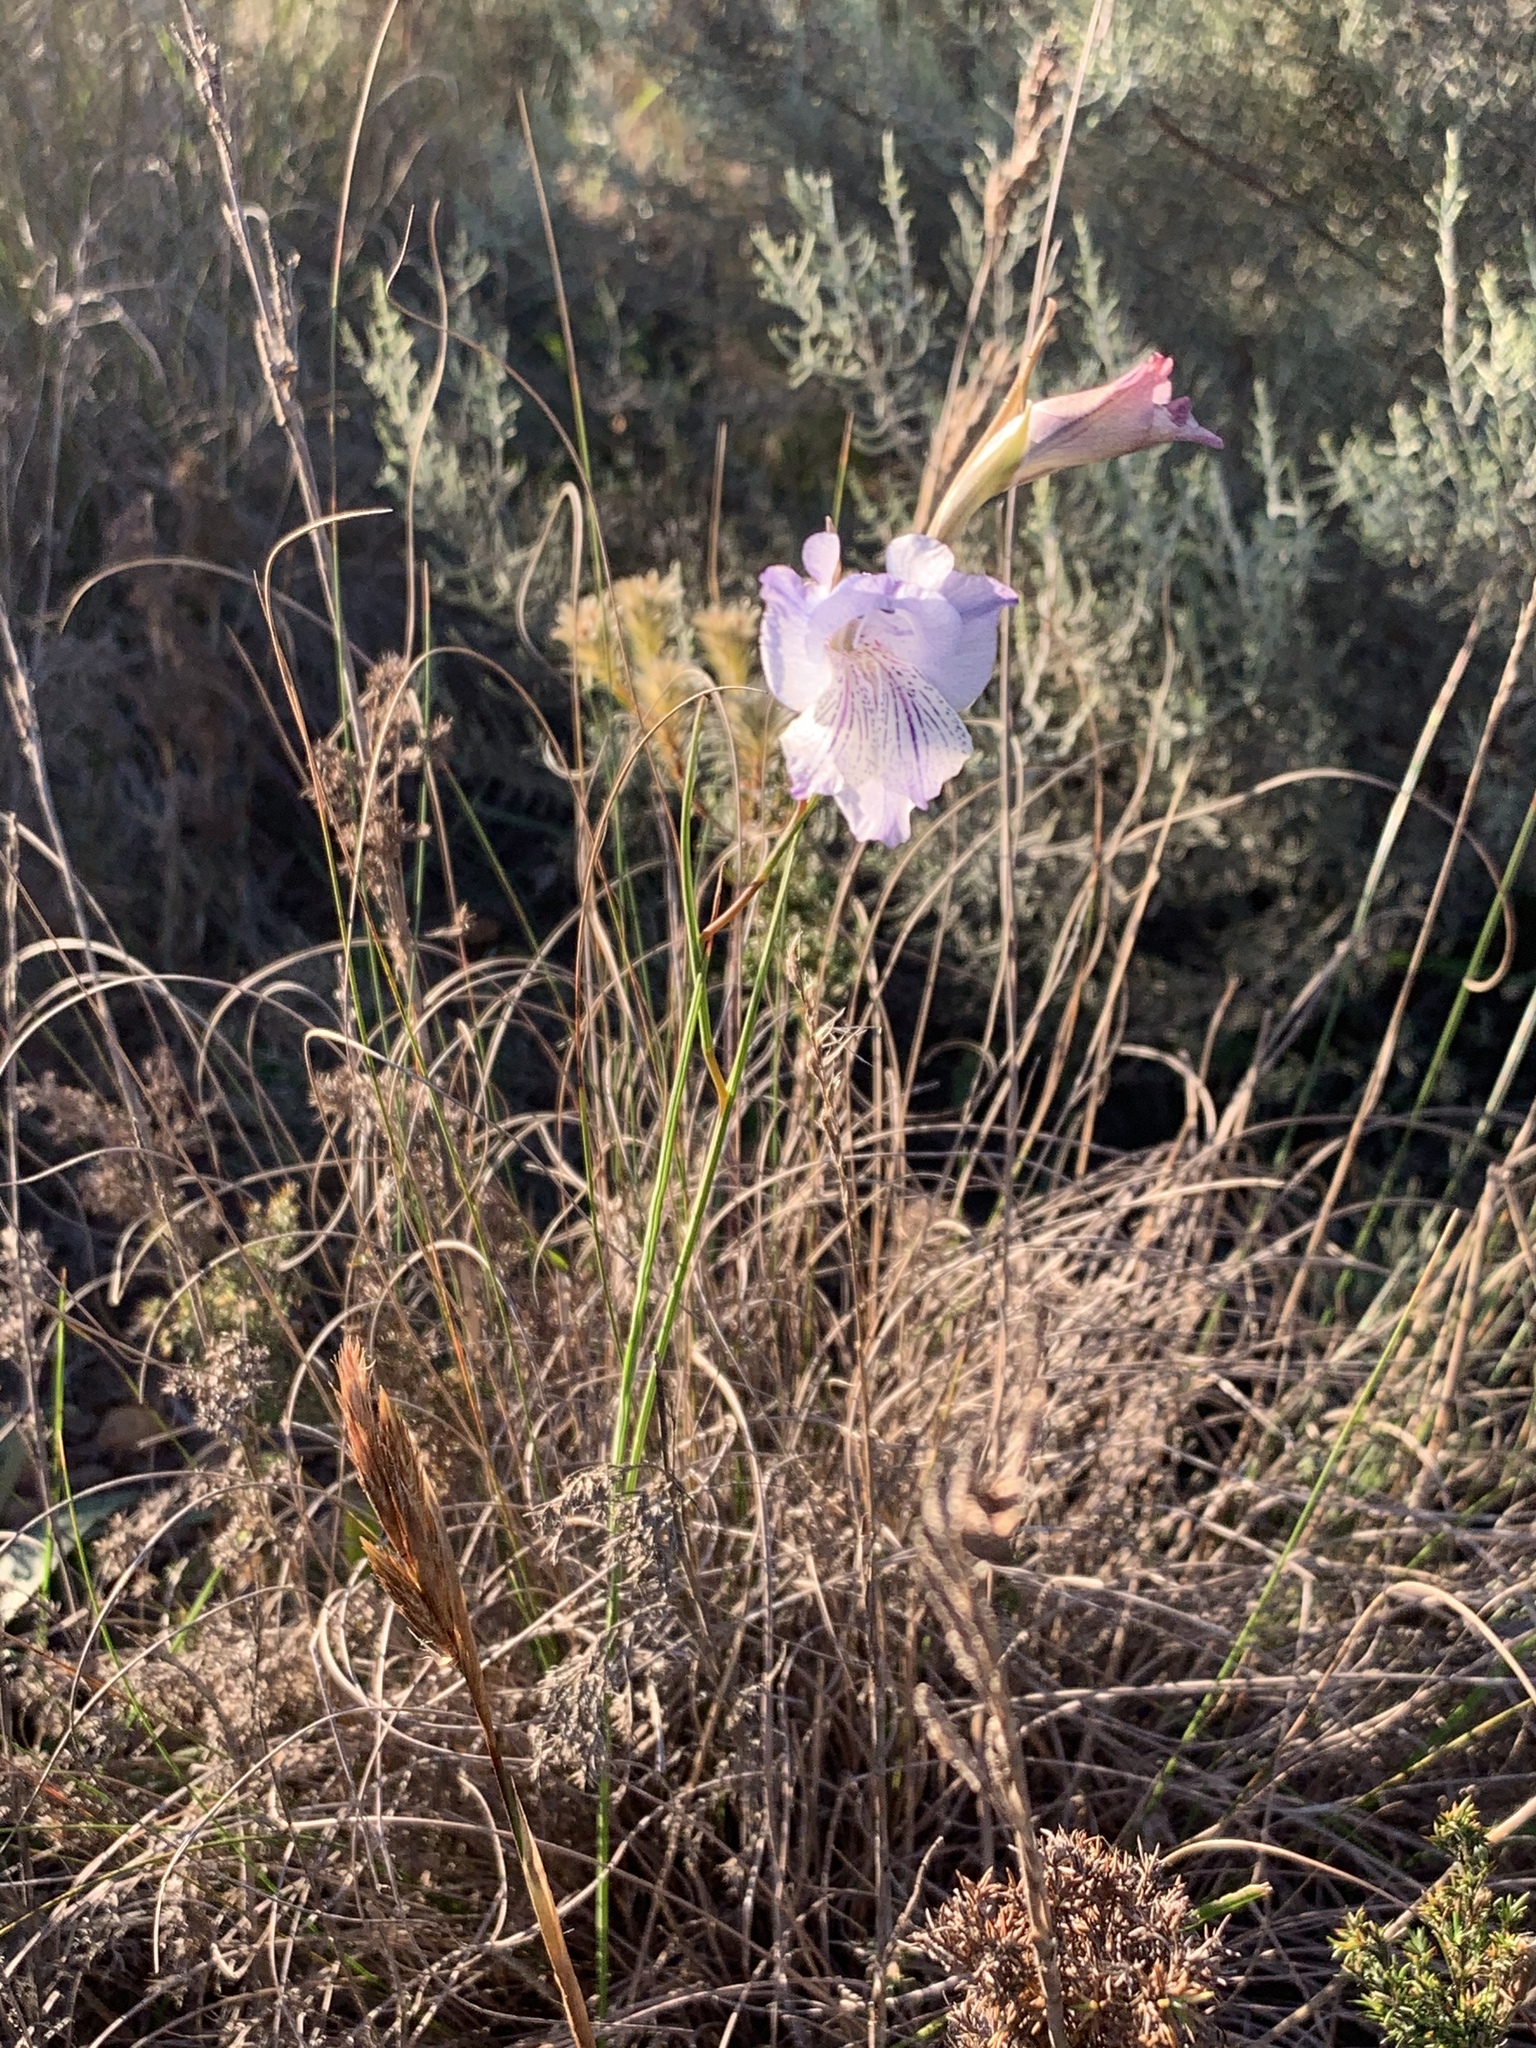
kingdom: Plantae
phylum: Tracheophyta
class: Liliopsida
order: Asparagales
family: Iridaceae
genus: Gladiolus
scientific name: Gladiolus hirsutus
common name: Small pink afrikaner
